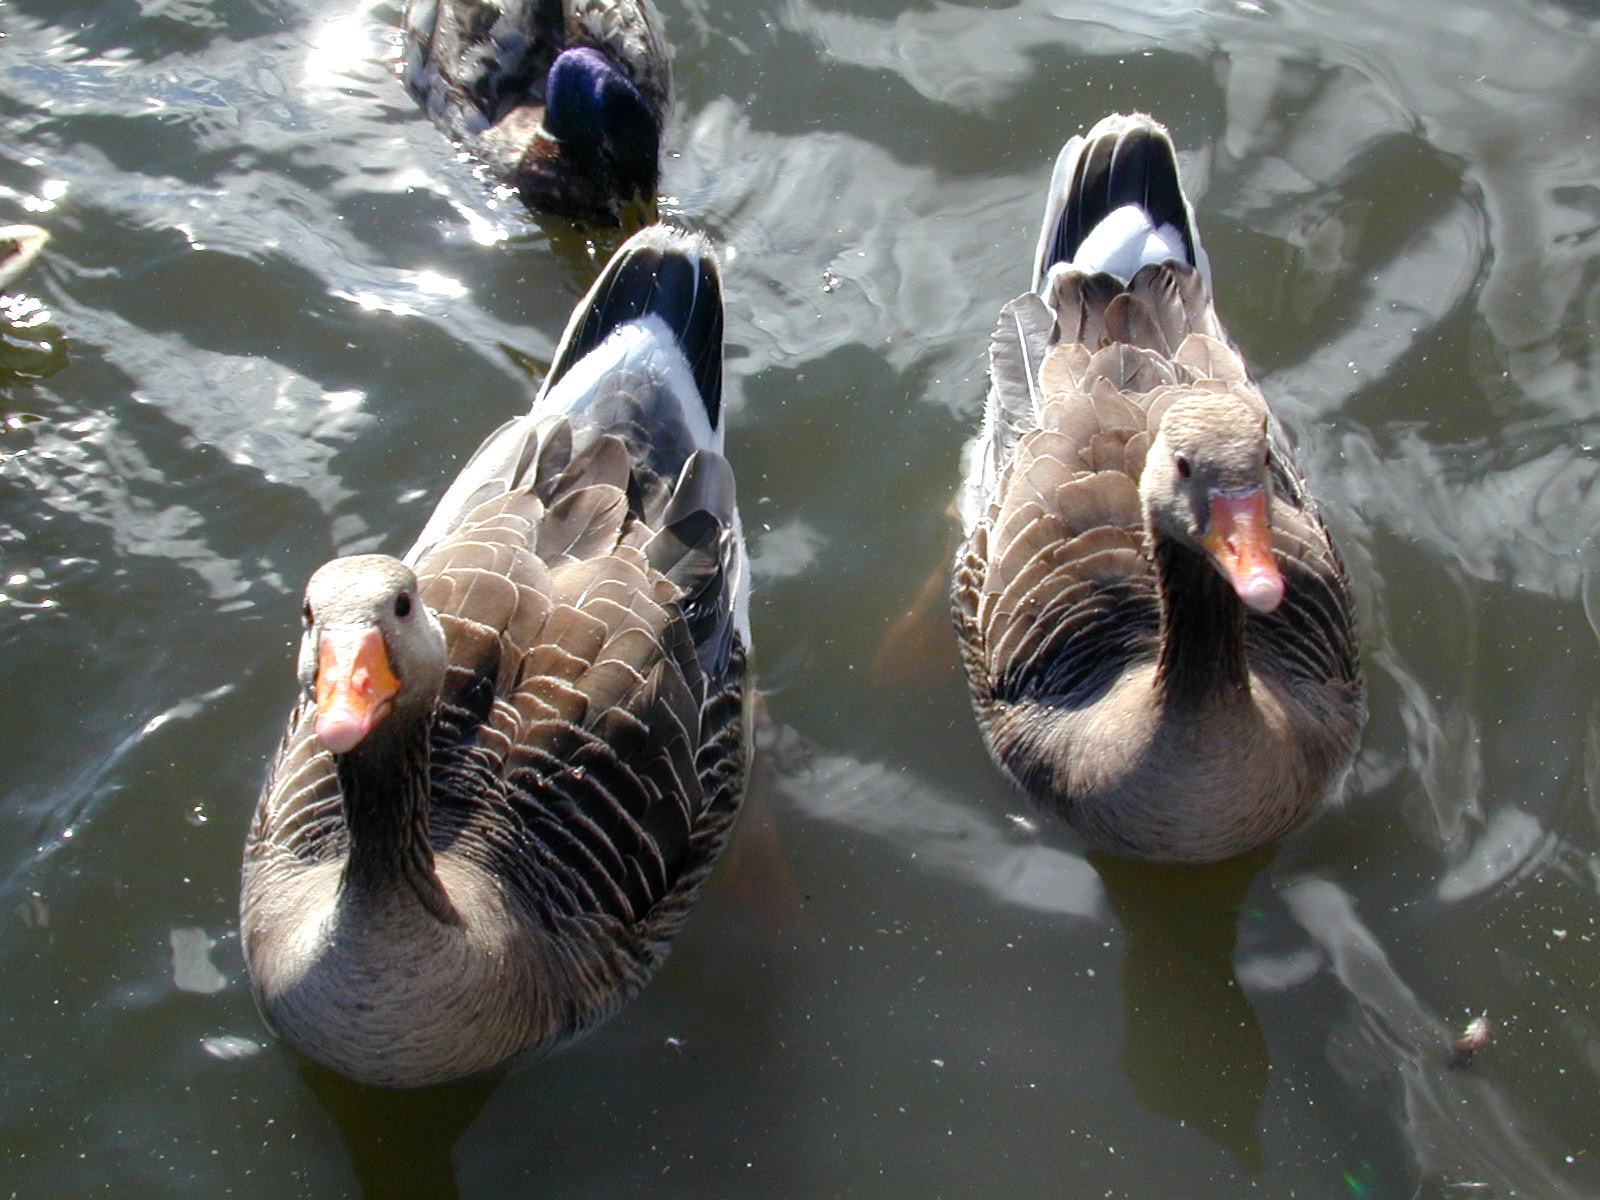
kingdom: Animalia
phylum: Chordata
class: Aves
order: Anseriformes
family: Anatidae
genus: Anser
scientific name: Anser anser
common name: Greylag goose
